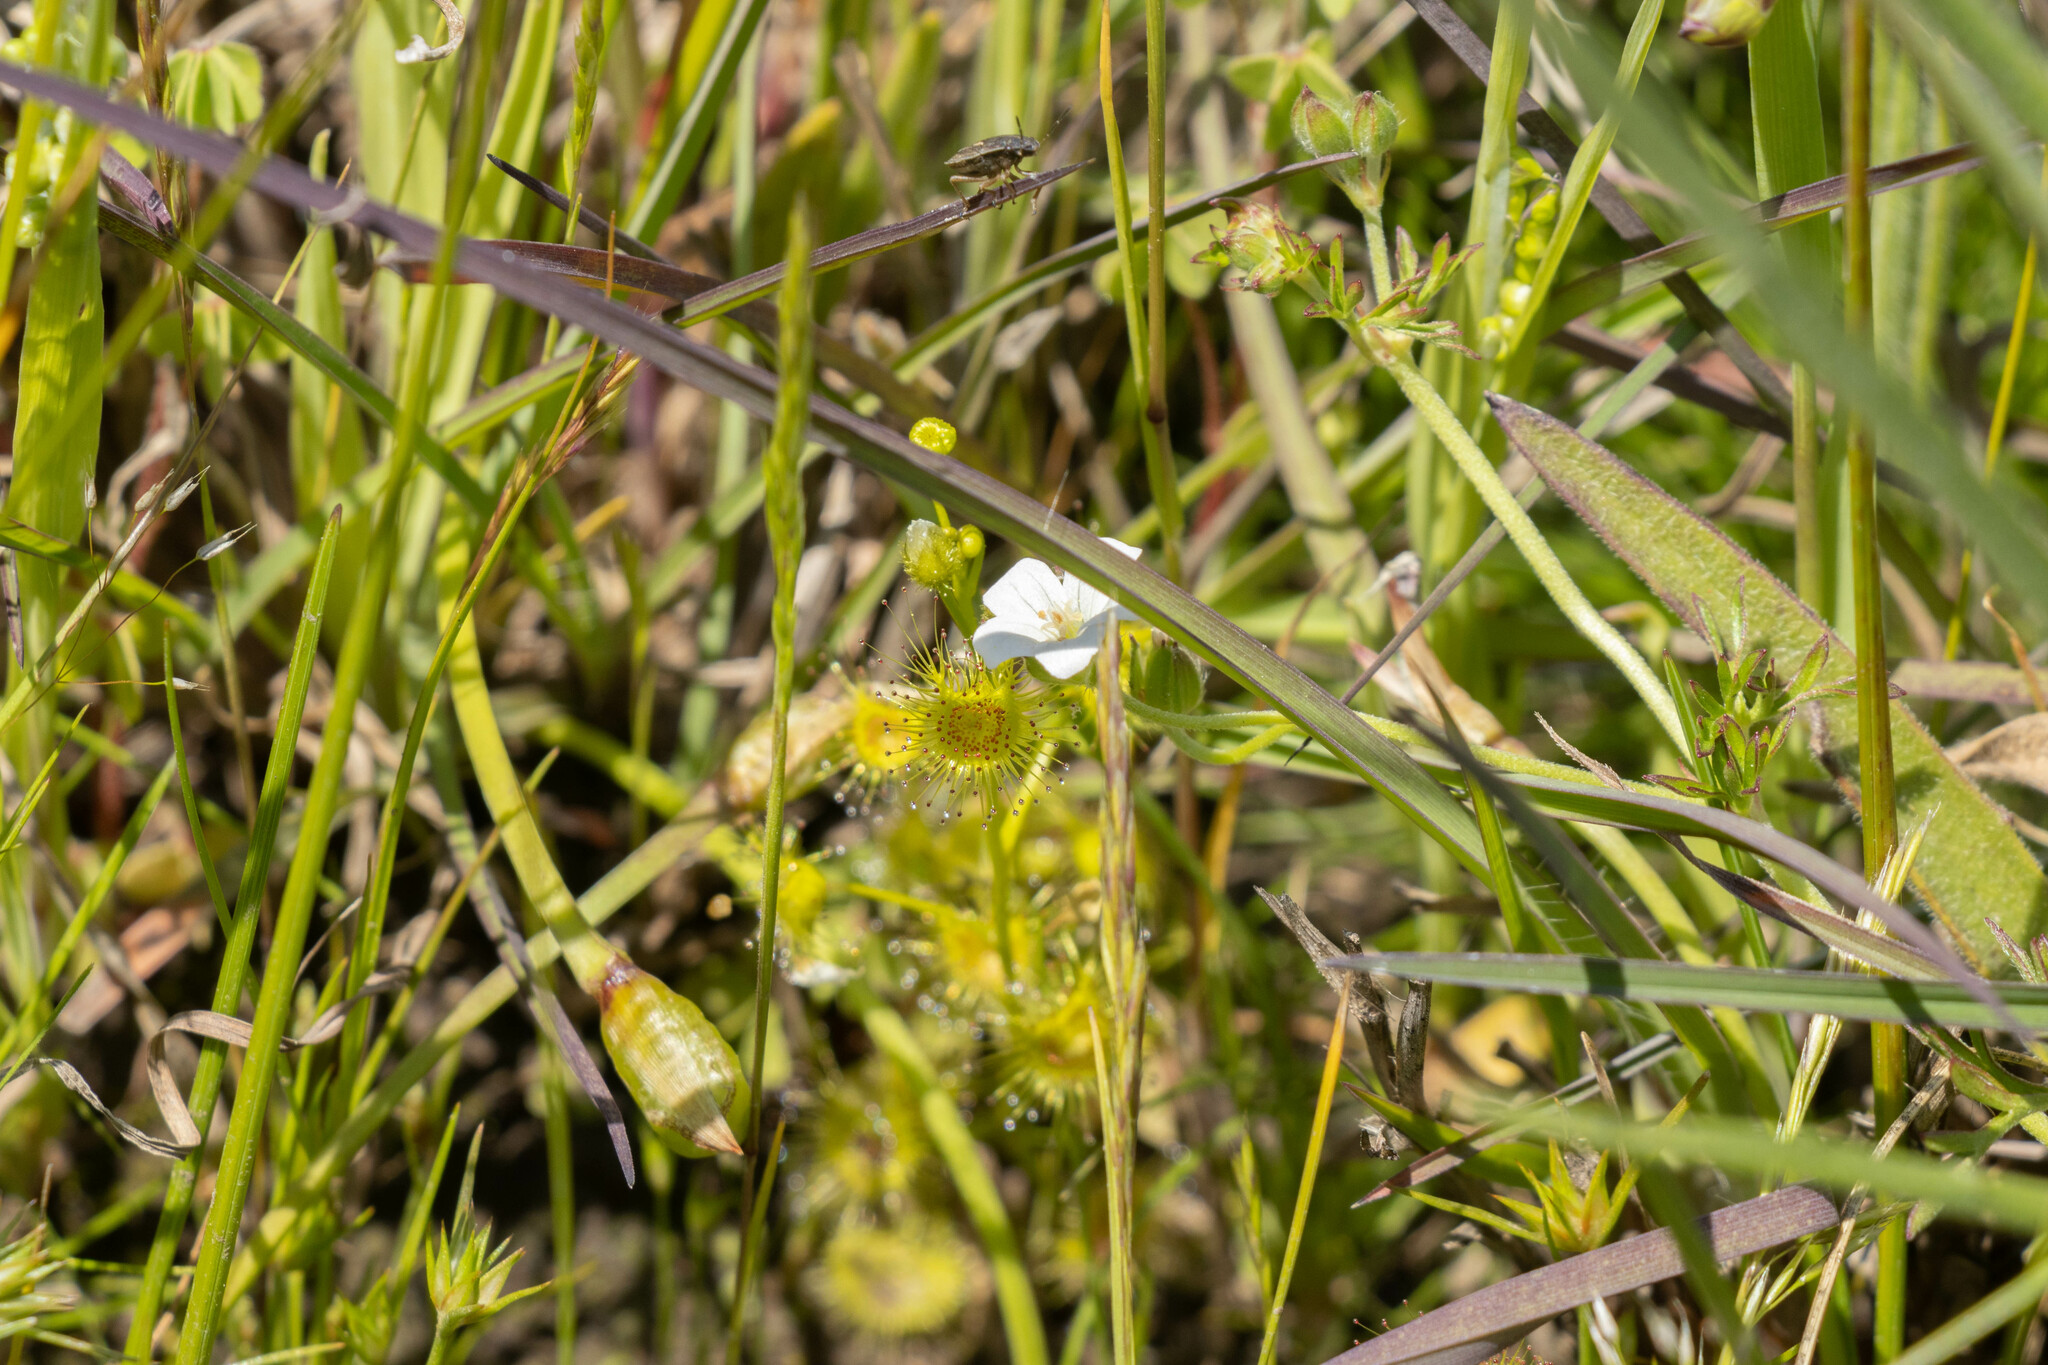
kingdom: Plantae
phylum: Tracheophyta
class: Magnoliopsida
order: Caryophyllales
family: Droseraceae
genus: Drosera
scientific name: Drosera hookeri
